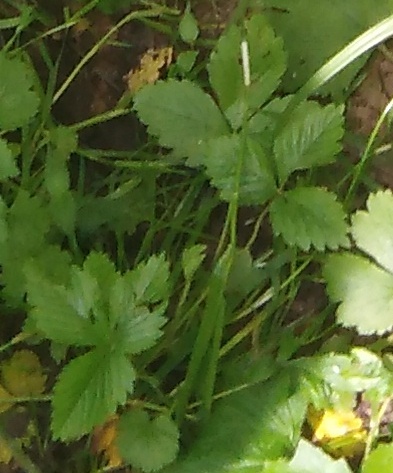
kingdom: Plantae
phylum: Tracheophyta
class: Magnoliopsida
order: Rosales
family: Rosaceae
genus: Fragaria
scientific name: Fragaria vesca
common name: Wild strawberry
